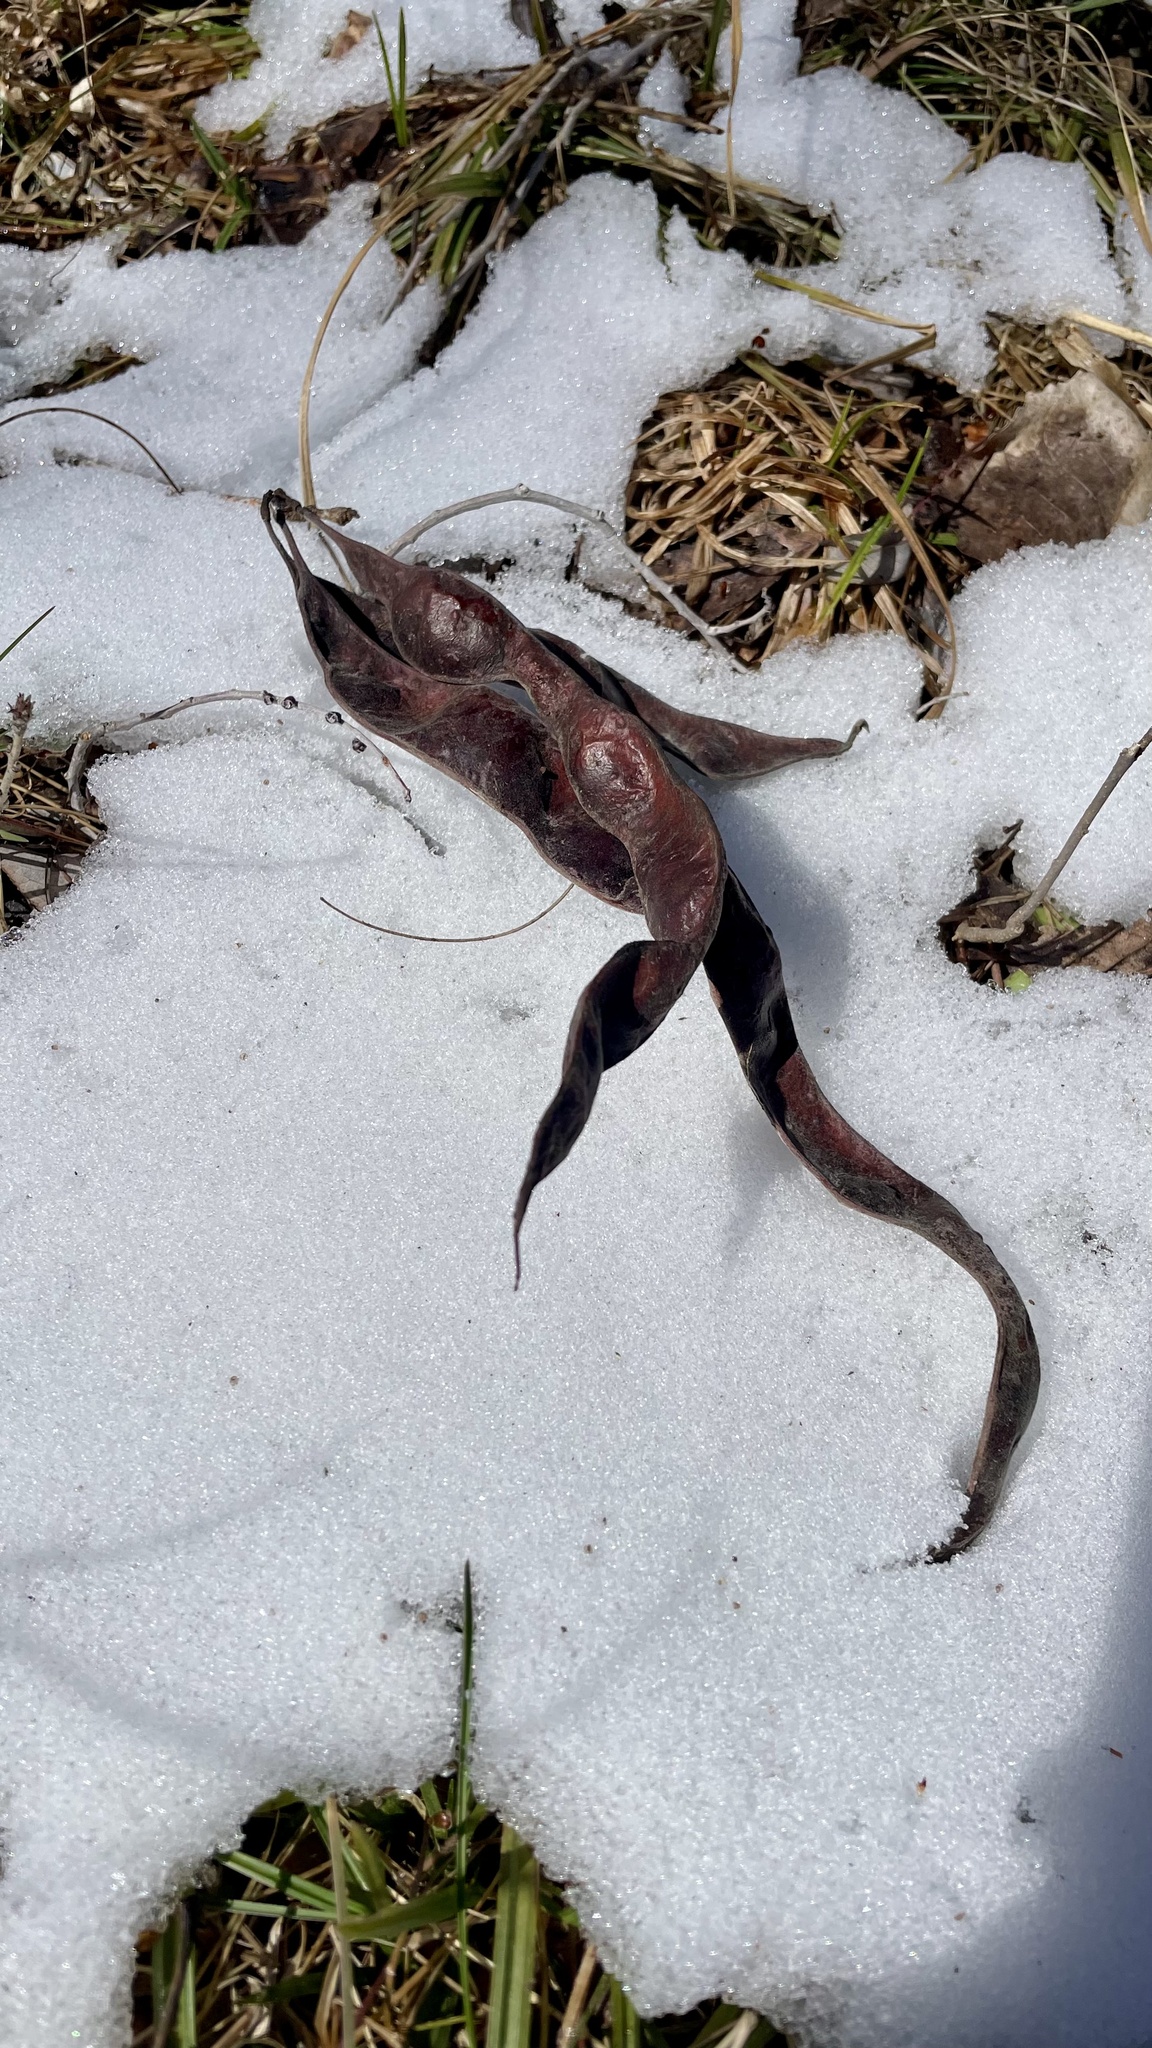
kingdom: Plantae
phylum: Tracheophyta
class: Magnoliopsida
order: Fabales
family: Fabaceae
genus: Gleditsia
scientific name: Gleditsia triacanthos
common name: Common honeylocust
